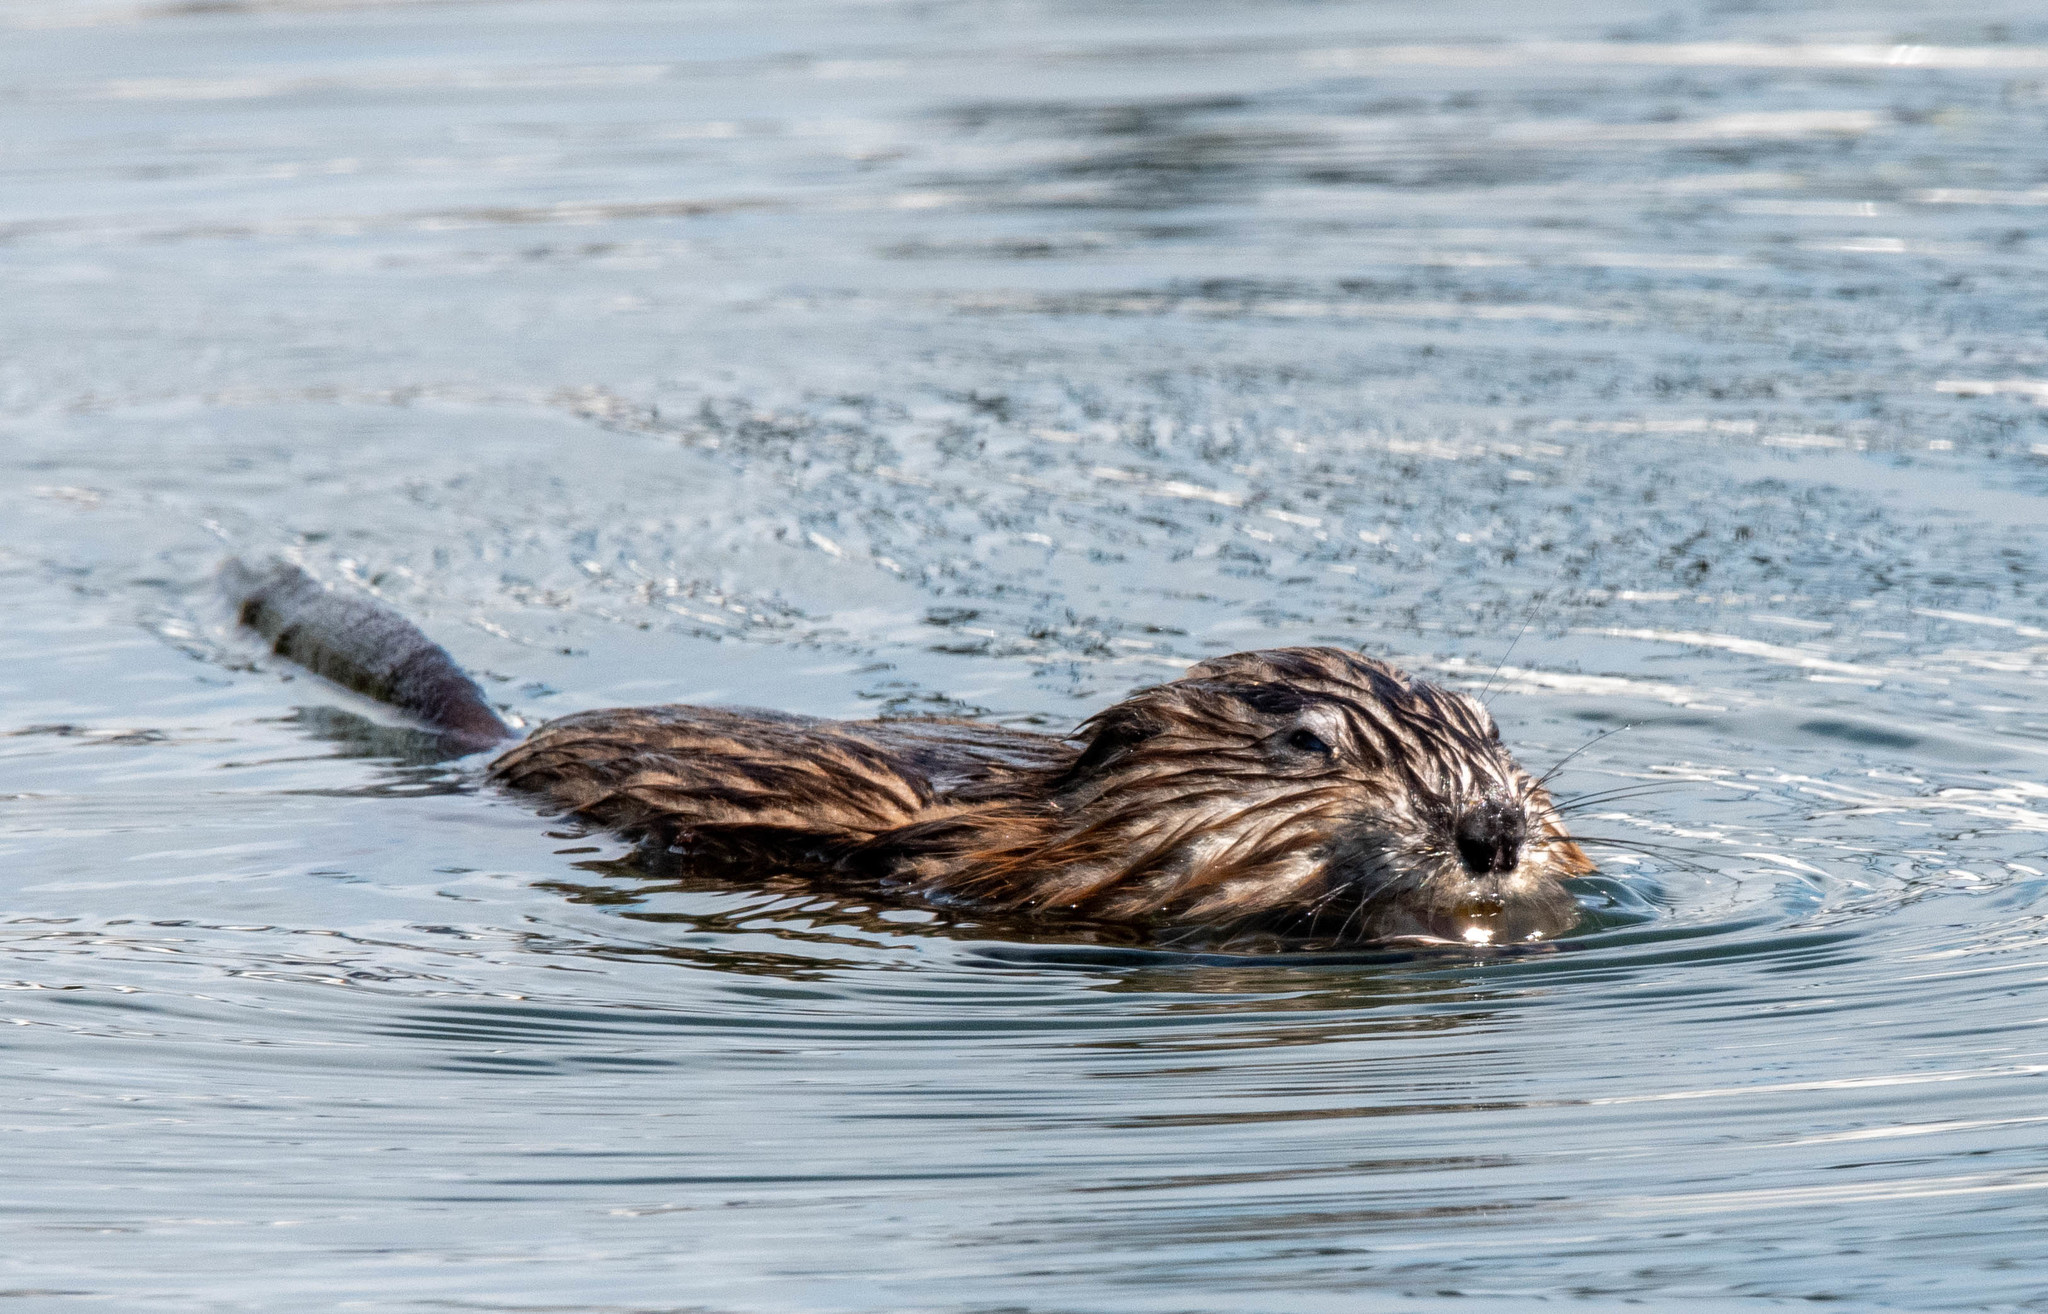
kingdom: Animalia
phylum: Chordata
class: Mammalia
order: Rodentia
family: Cricetidae
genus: Ondatra
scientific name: Ondatra zibethicus
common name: Muskrat
